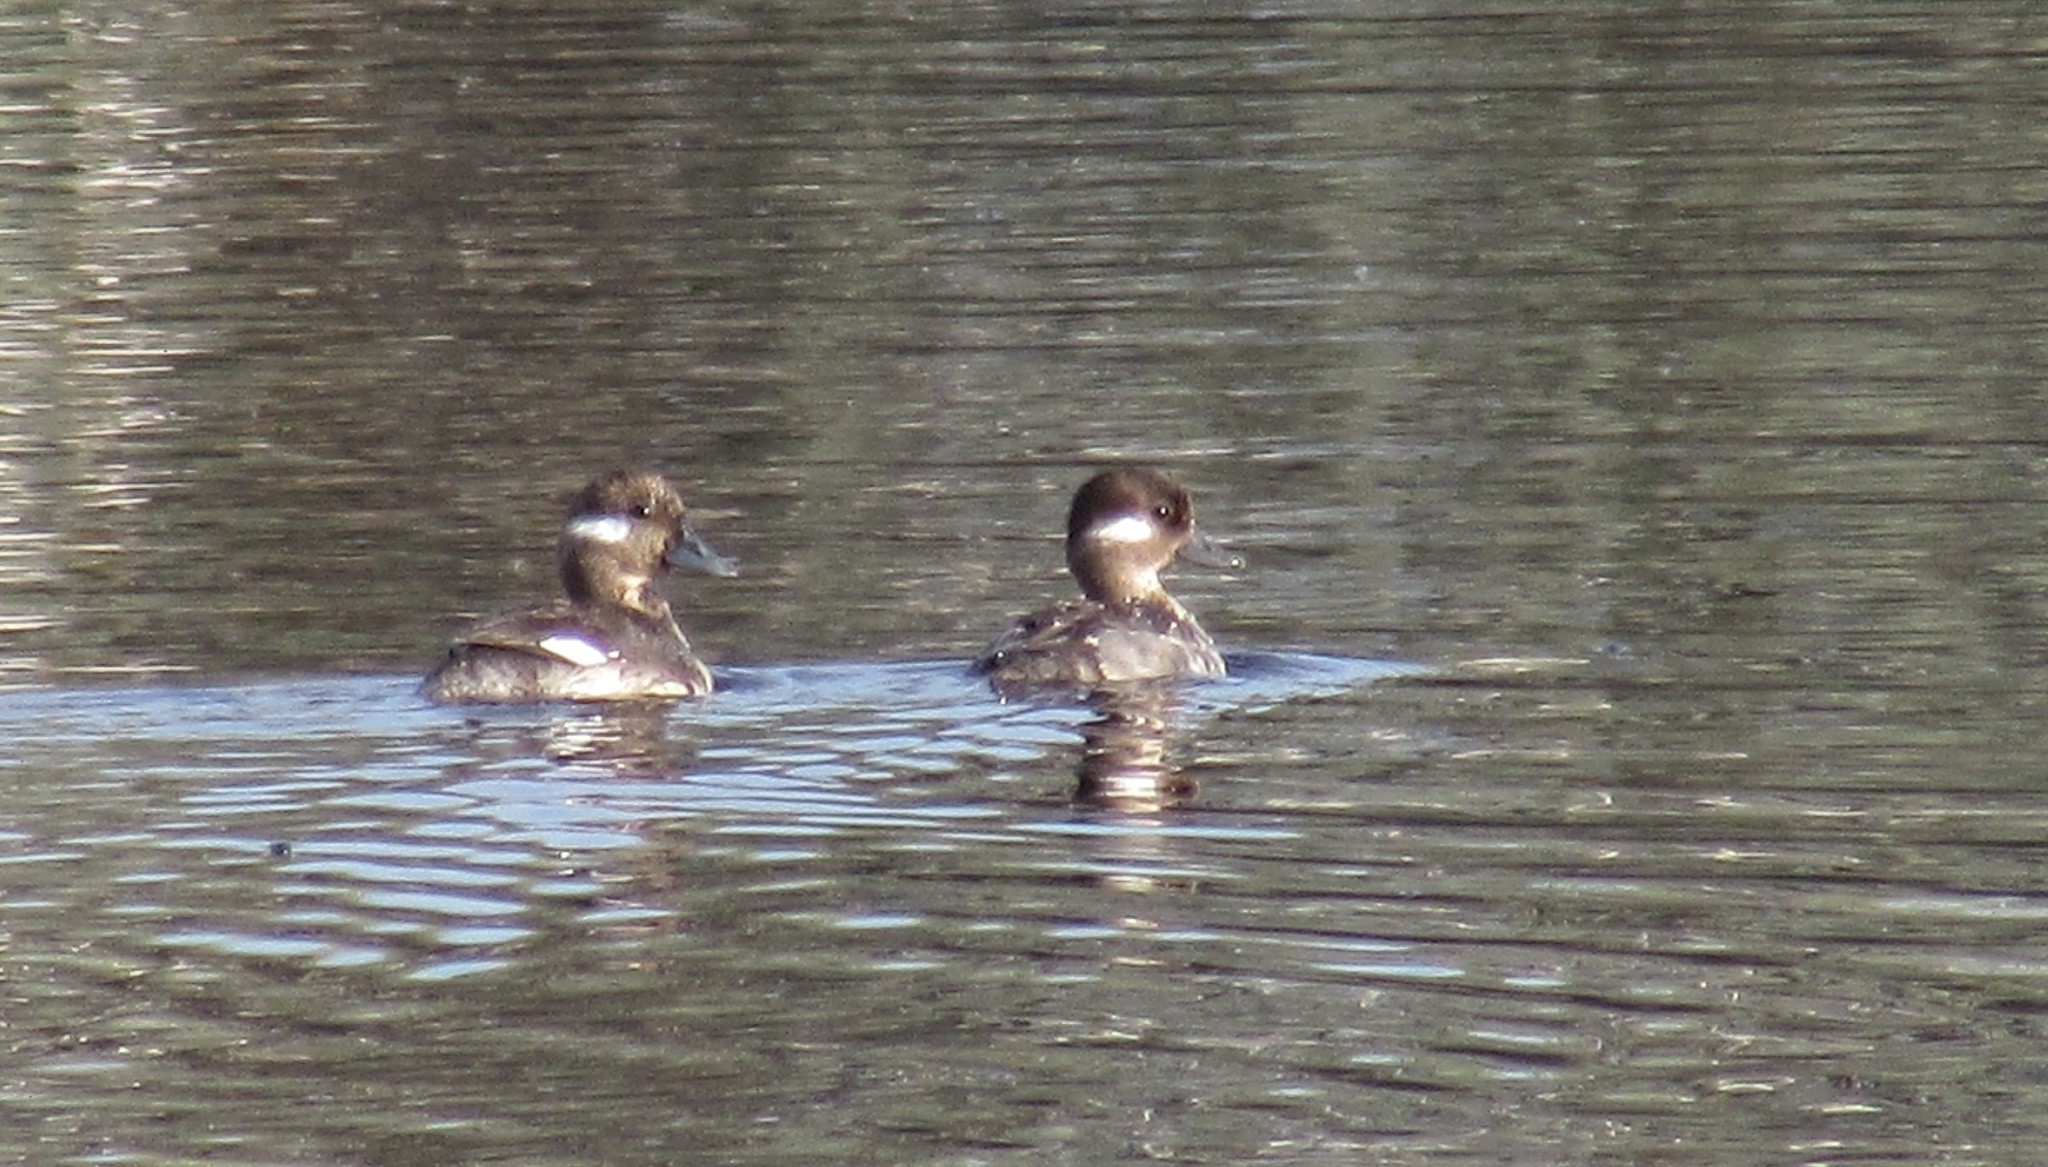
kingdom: Animalia
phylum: Chordata
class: Aves
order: Anseriformes
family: Anatidae
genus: Bucephala
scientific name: Bucephala albeola
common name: Bufflehead
